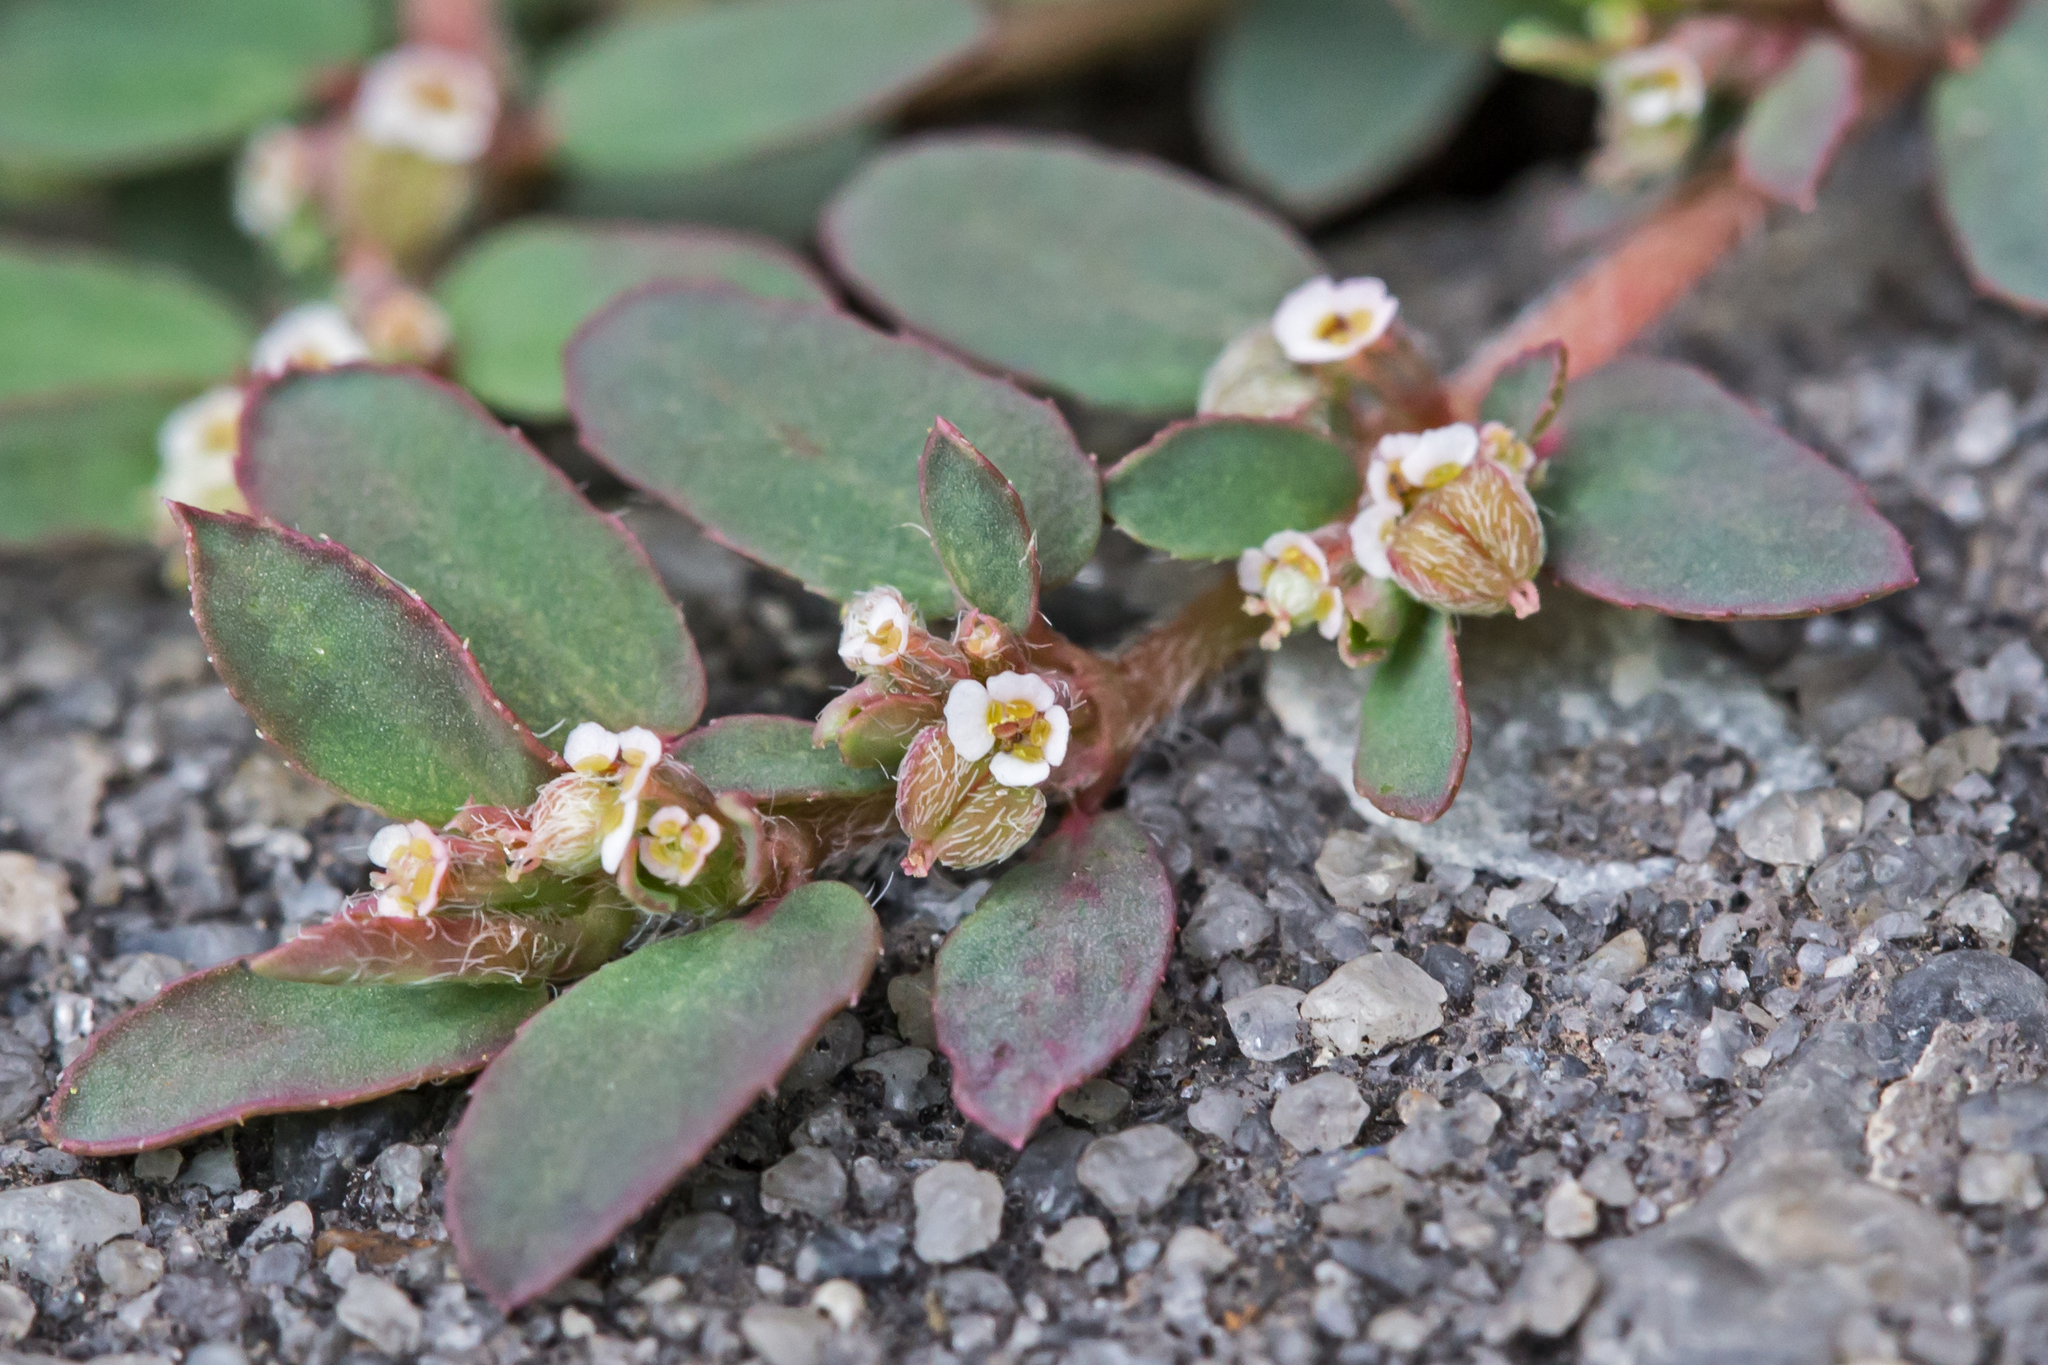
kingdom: Plantae
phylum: Tracheophyta
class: Magnoliopsida
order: Malpighiales
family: Euphorbiaceae
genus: Euphorbia
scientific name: Euphorbia maculata
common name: Spotted spurge
